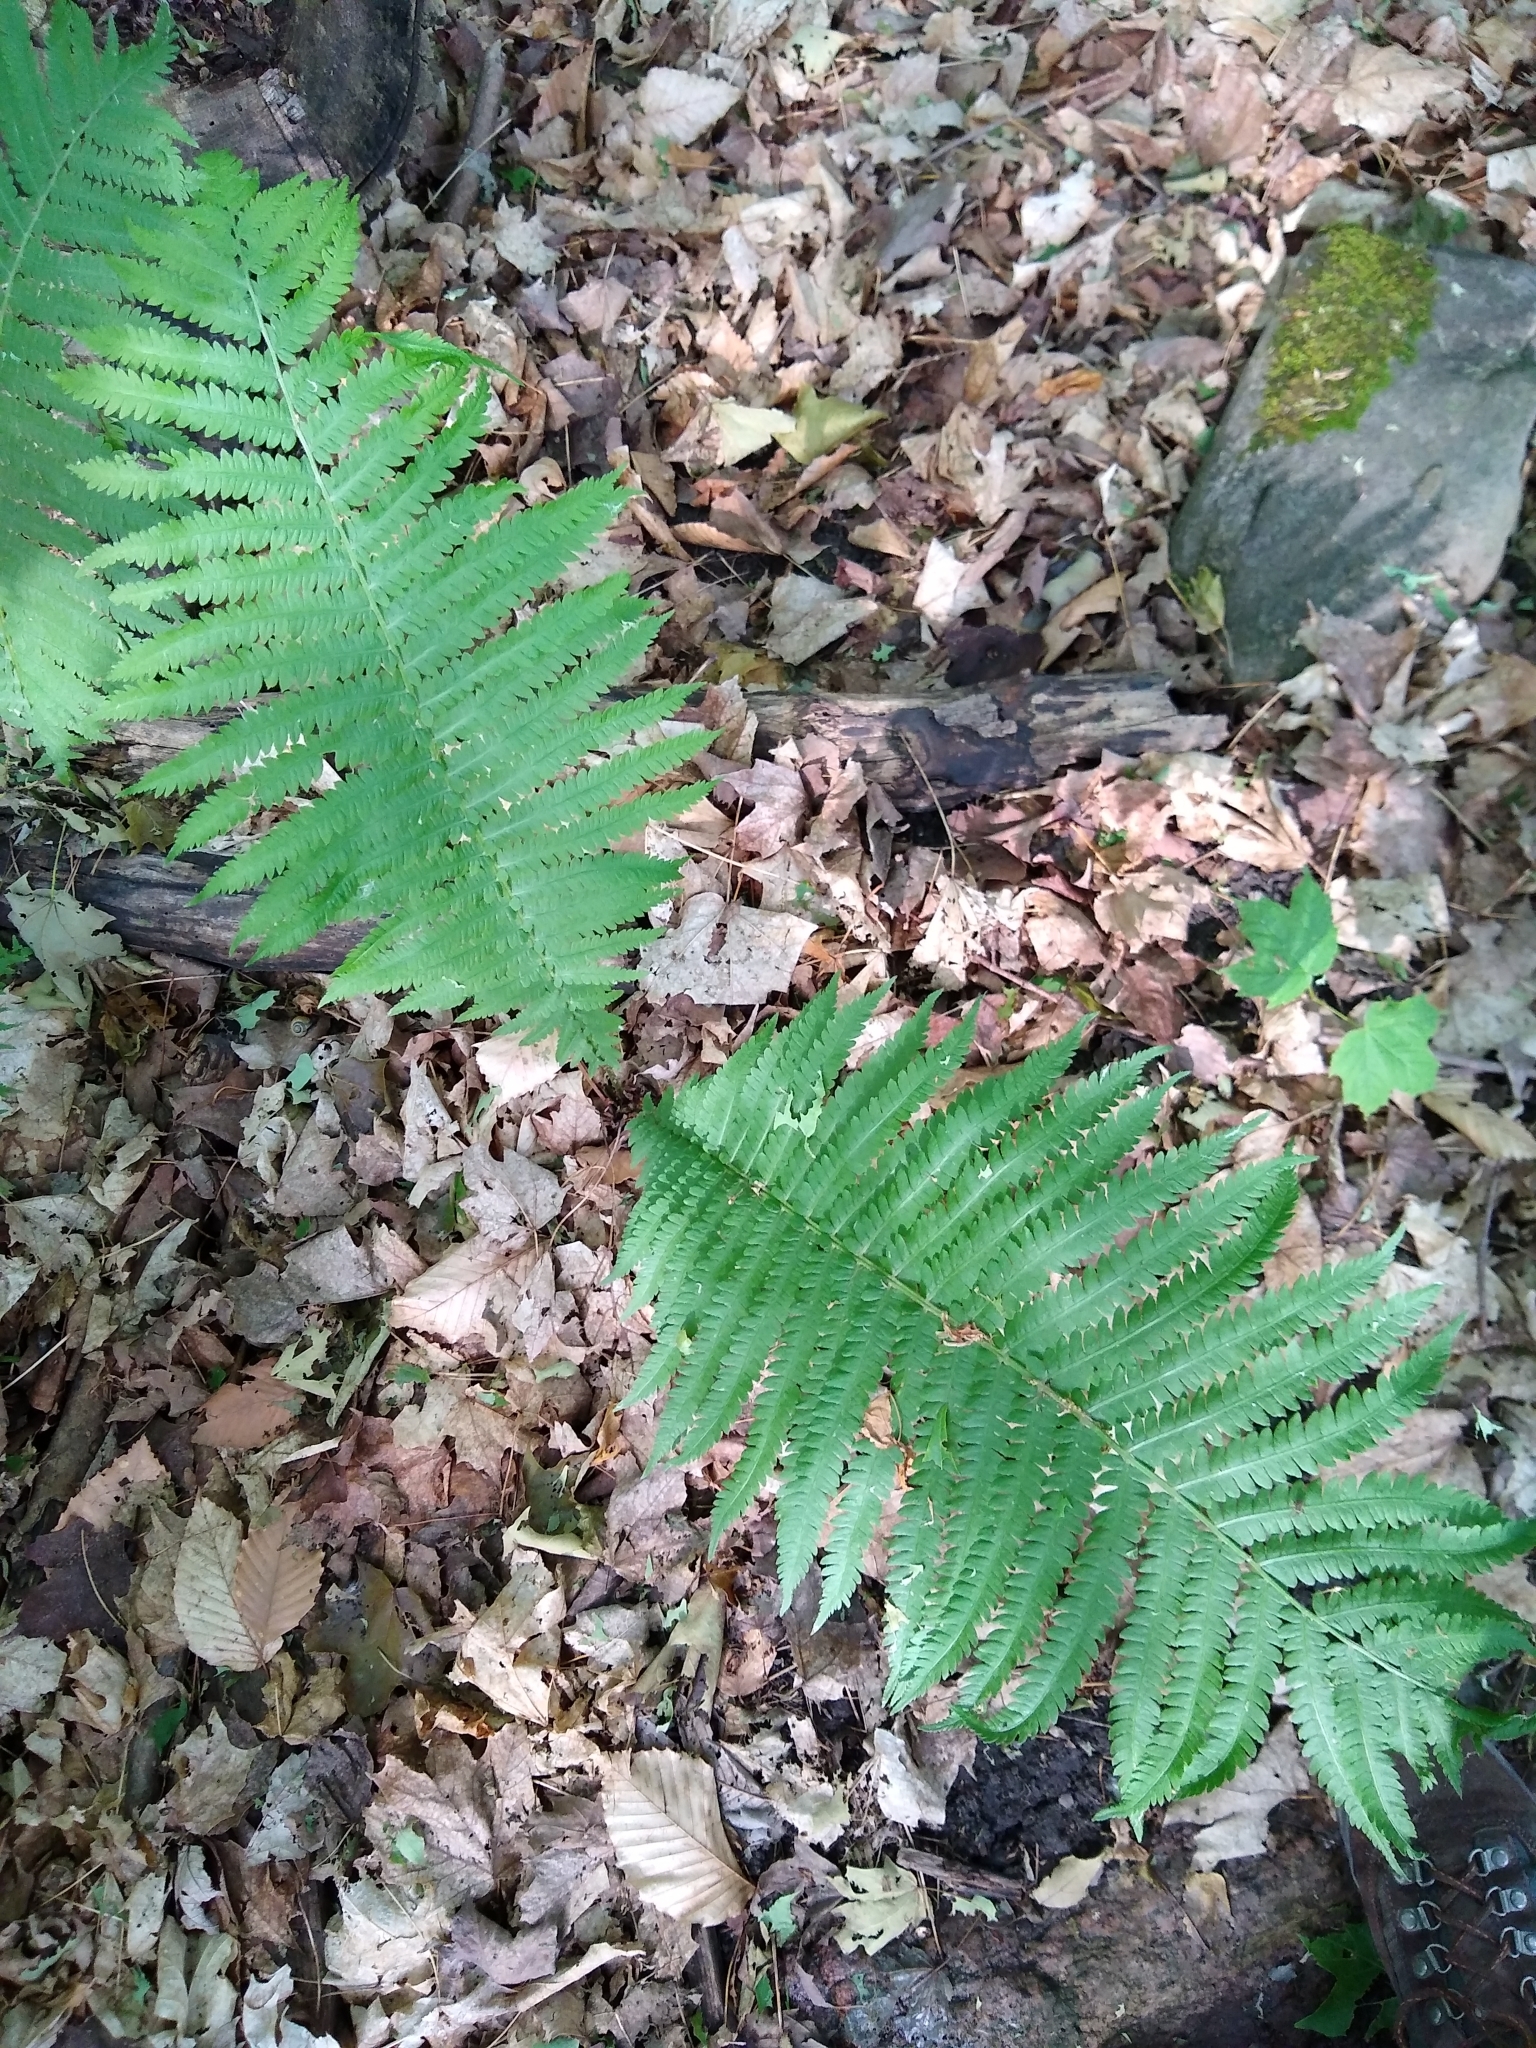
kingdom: Plantae
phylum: Tracheophyta
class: Polypodiopsida
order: Polypodiales
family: Onocleaceae
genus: Matteuccia
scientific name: Matteuccia pensylvanica
